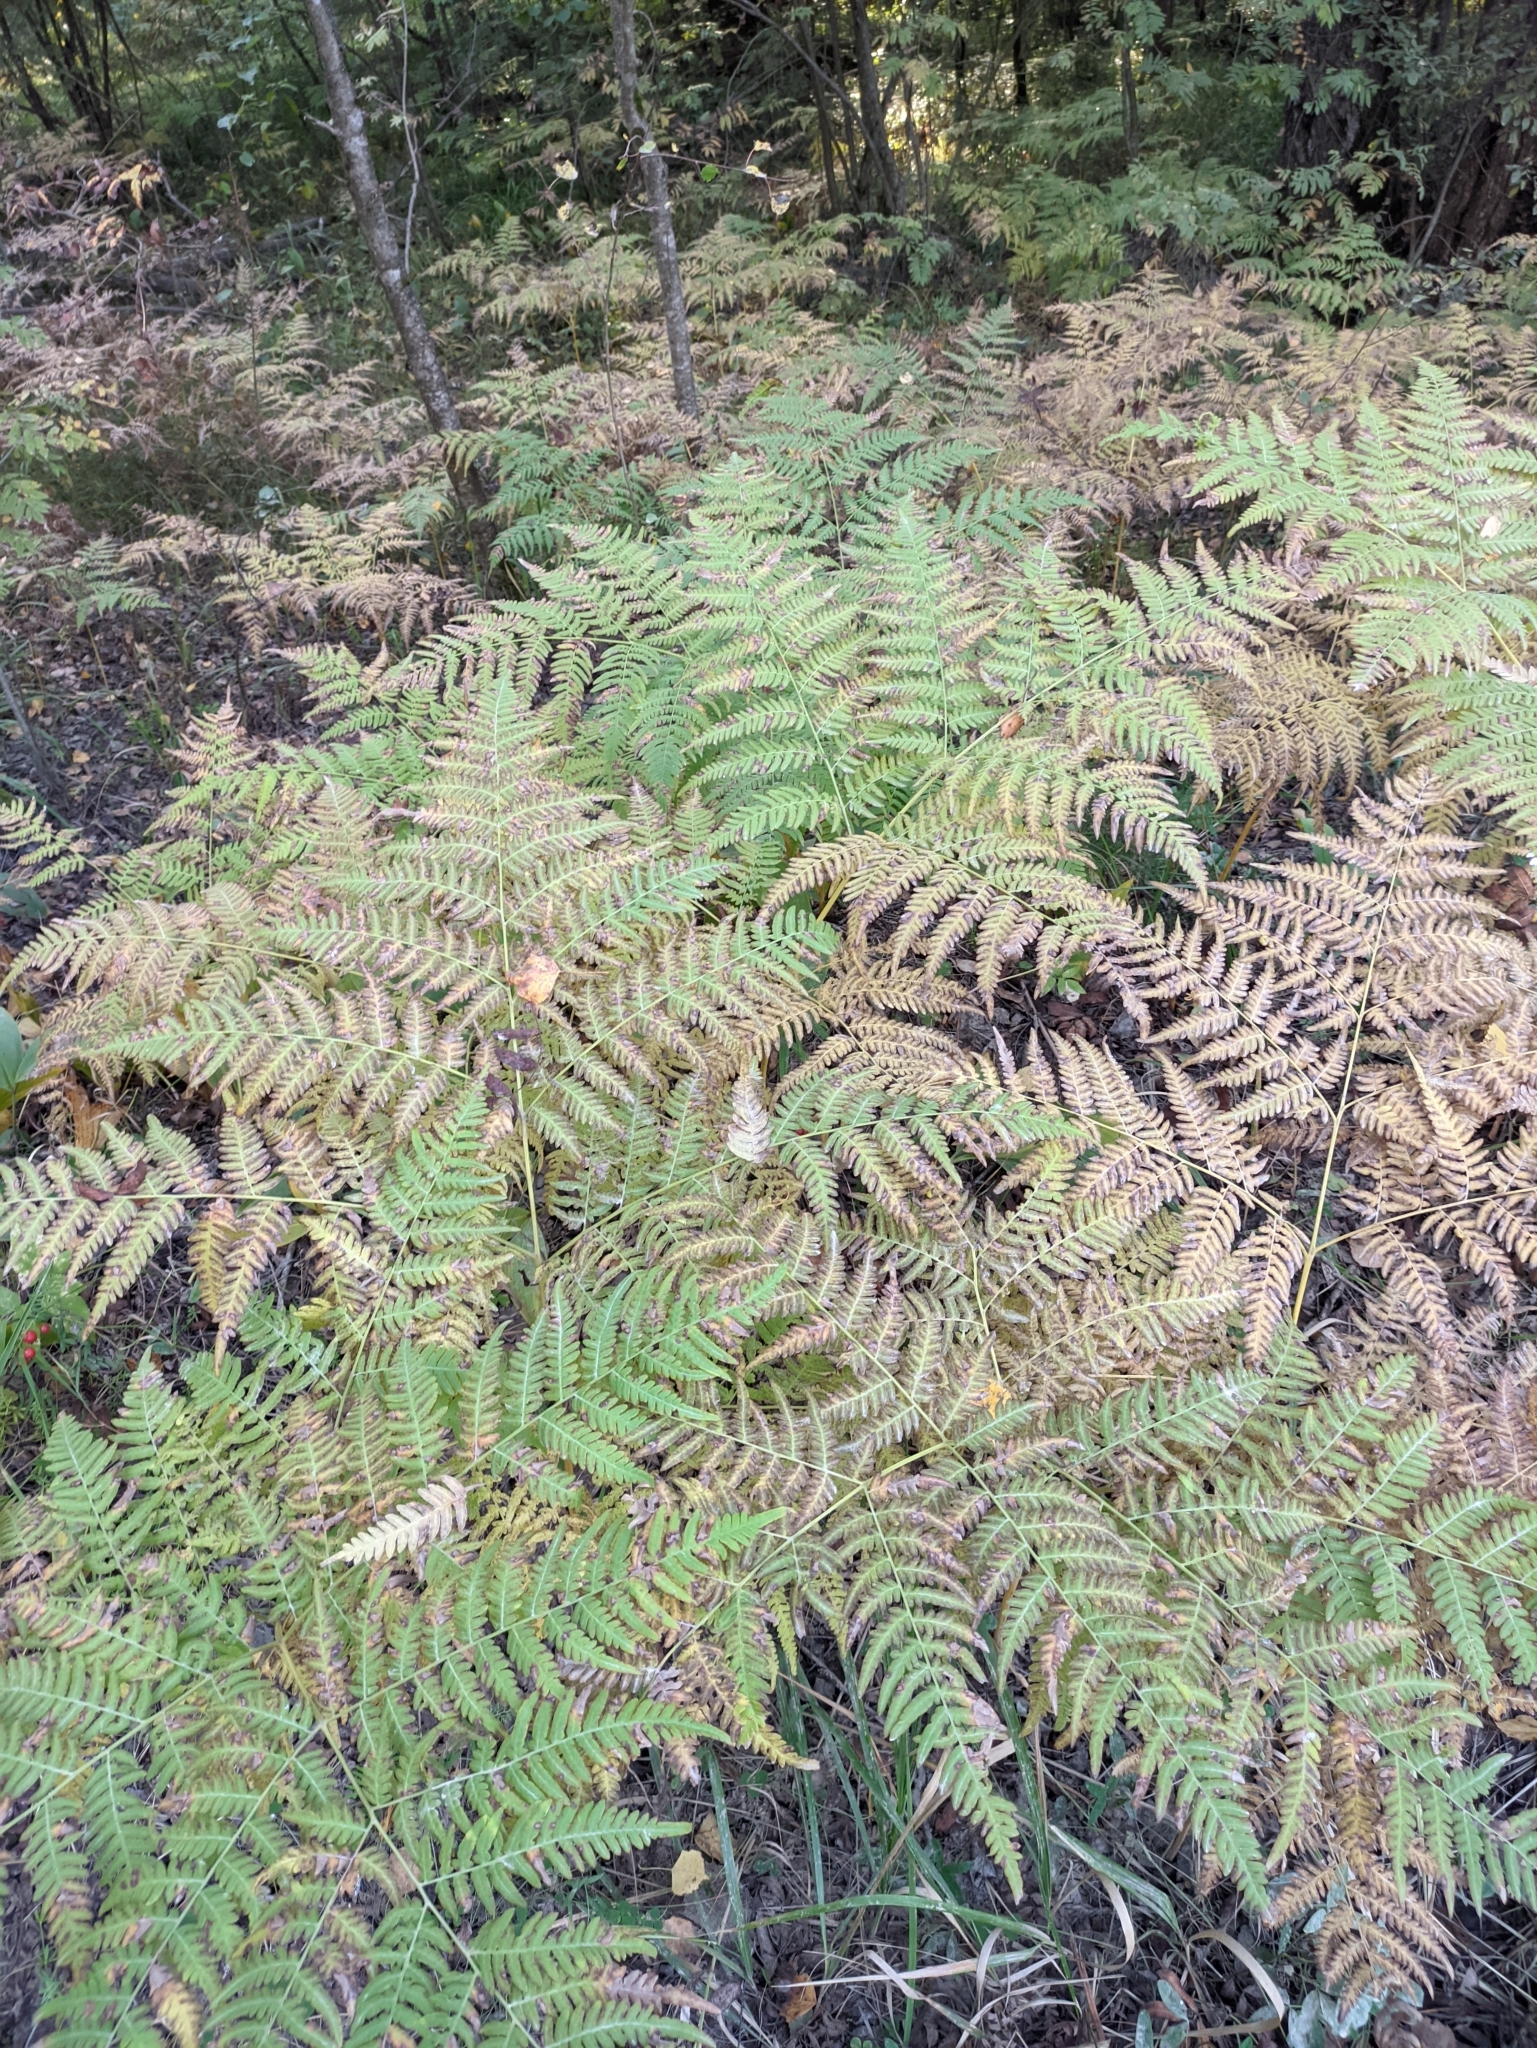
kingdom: Plantae
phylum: Tracheophyta
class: Polypodiopsida
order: Polypodiales
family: Dennstaedtiaceae
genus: Pteridium
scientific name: Pteridium aquilinum
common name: Bracken
